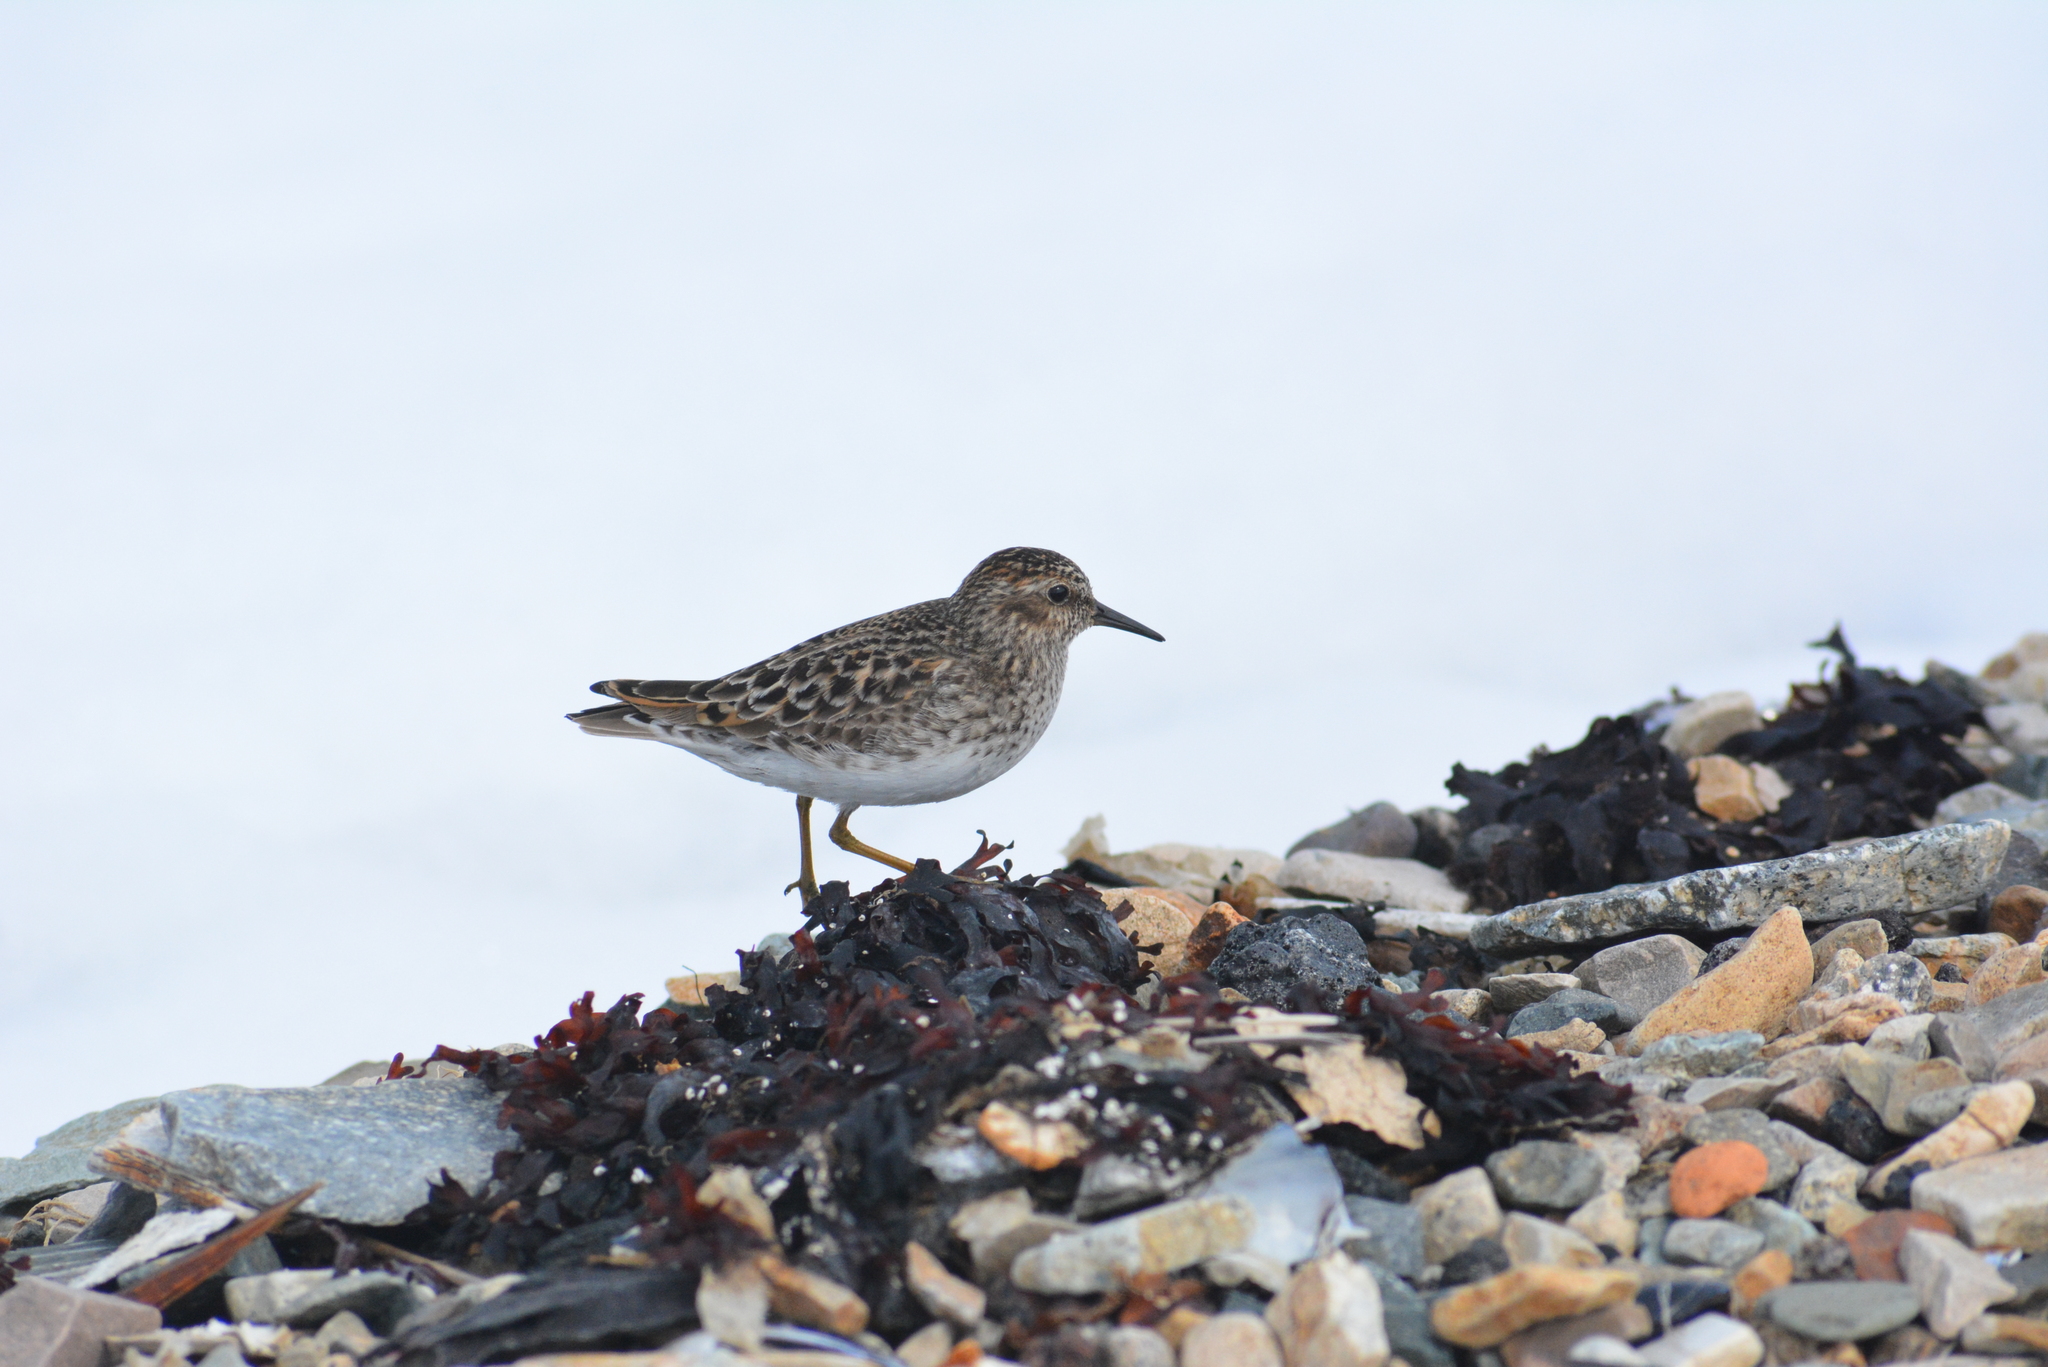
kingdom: Animalia
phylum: Chordata
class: Aves
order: Charadriiformes
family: Scolopacidae
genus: Calidris
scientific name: Calidris minutilla
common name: Least sandpiper
